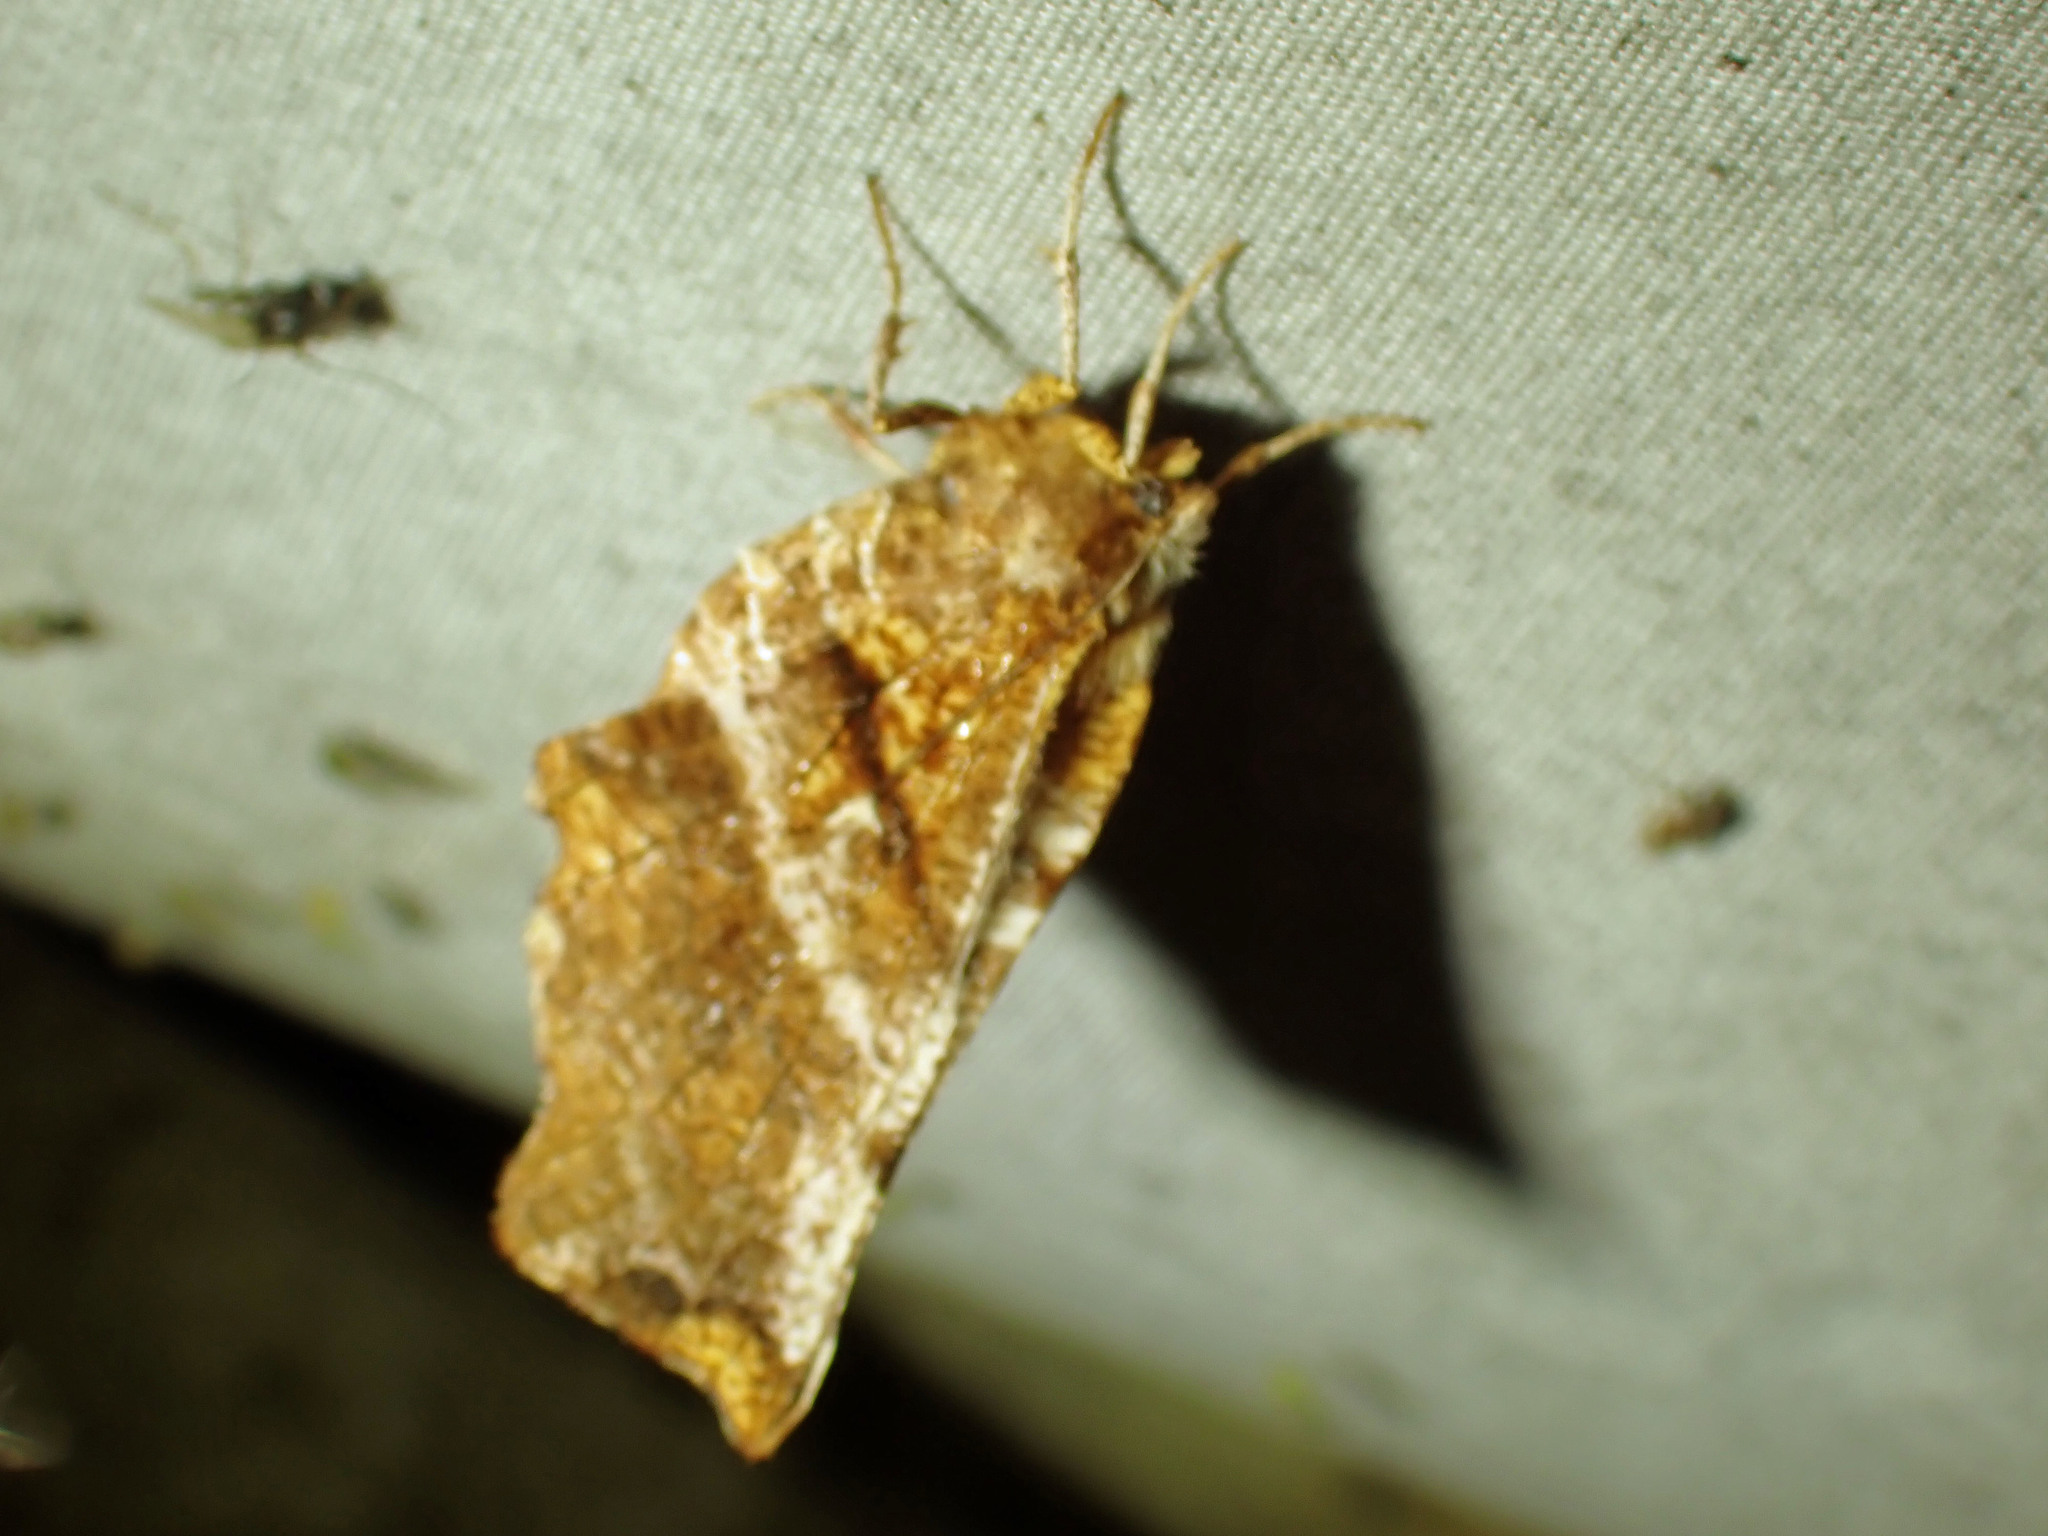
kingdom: Animalia
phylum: Arthropoda
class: Insecta
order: Lepidoptera
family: Geometridae
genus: Selenia
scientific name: Selenia alciphearia
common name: Brown-tipped thorn
